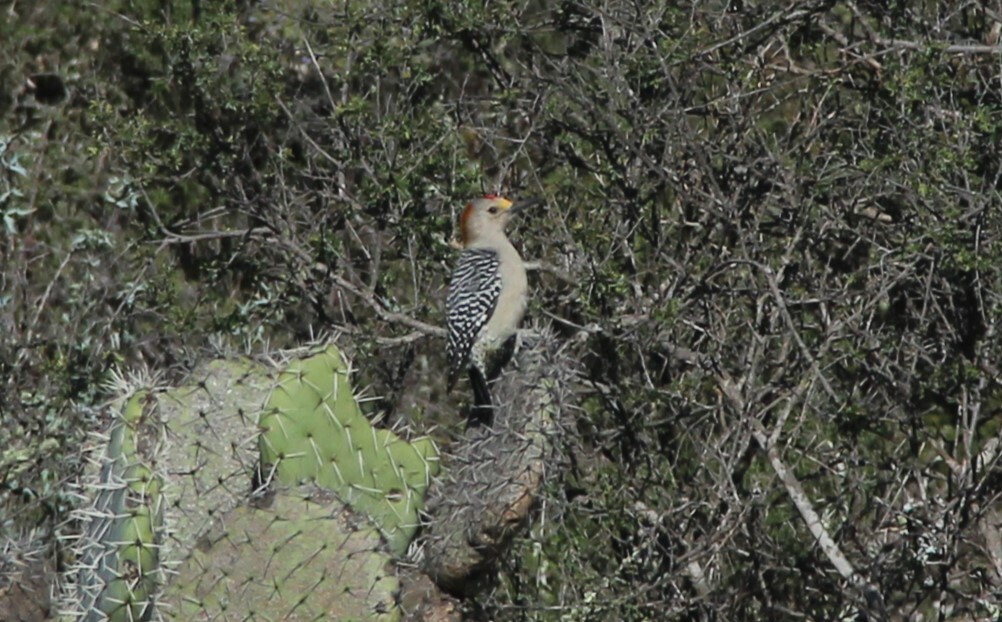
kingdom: Animalia
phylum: Chordata
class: Aves
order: Piciformes
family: Picidae
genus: Melanerpes
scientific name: Melanerpes aurifrons
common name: Golden-fronted woodpecker
